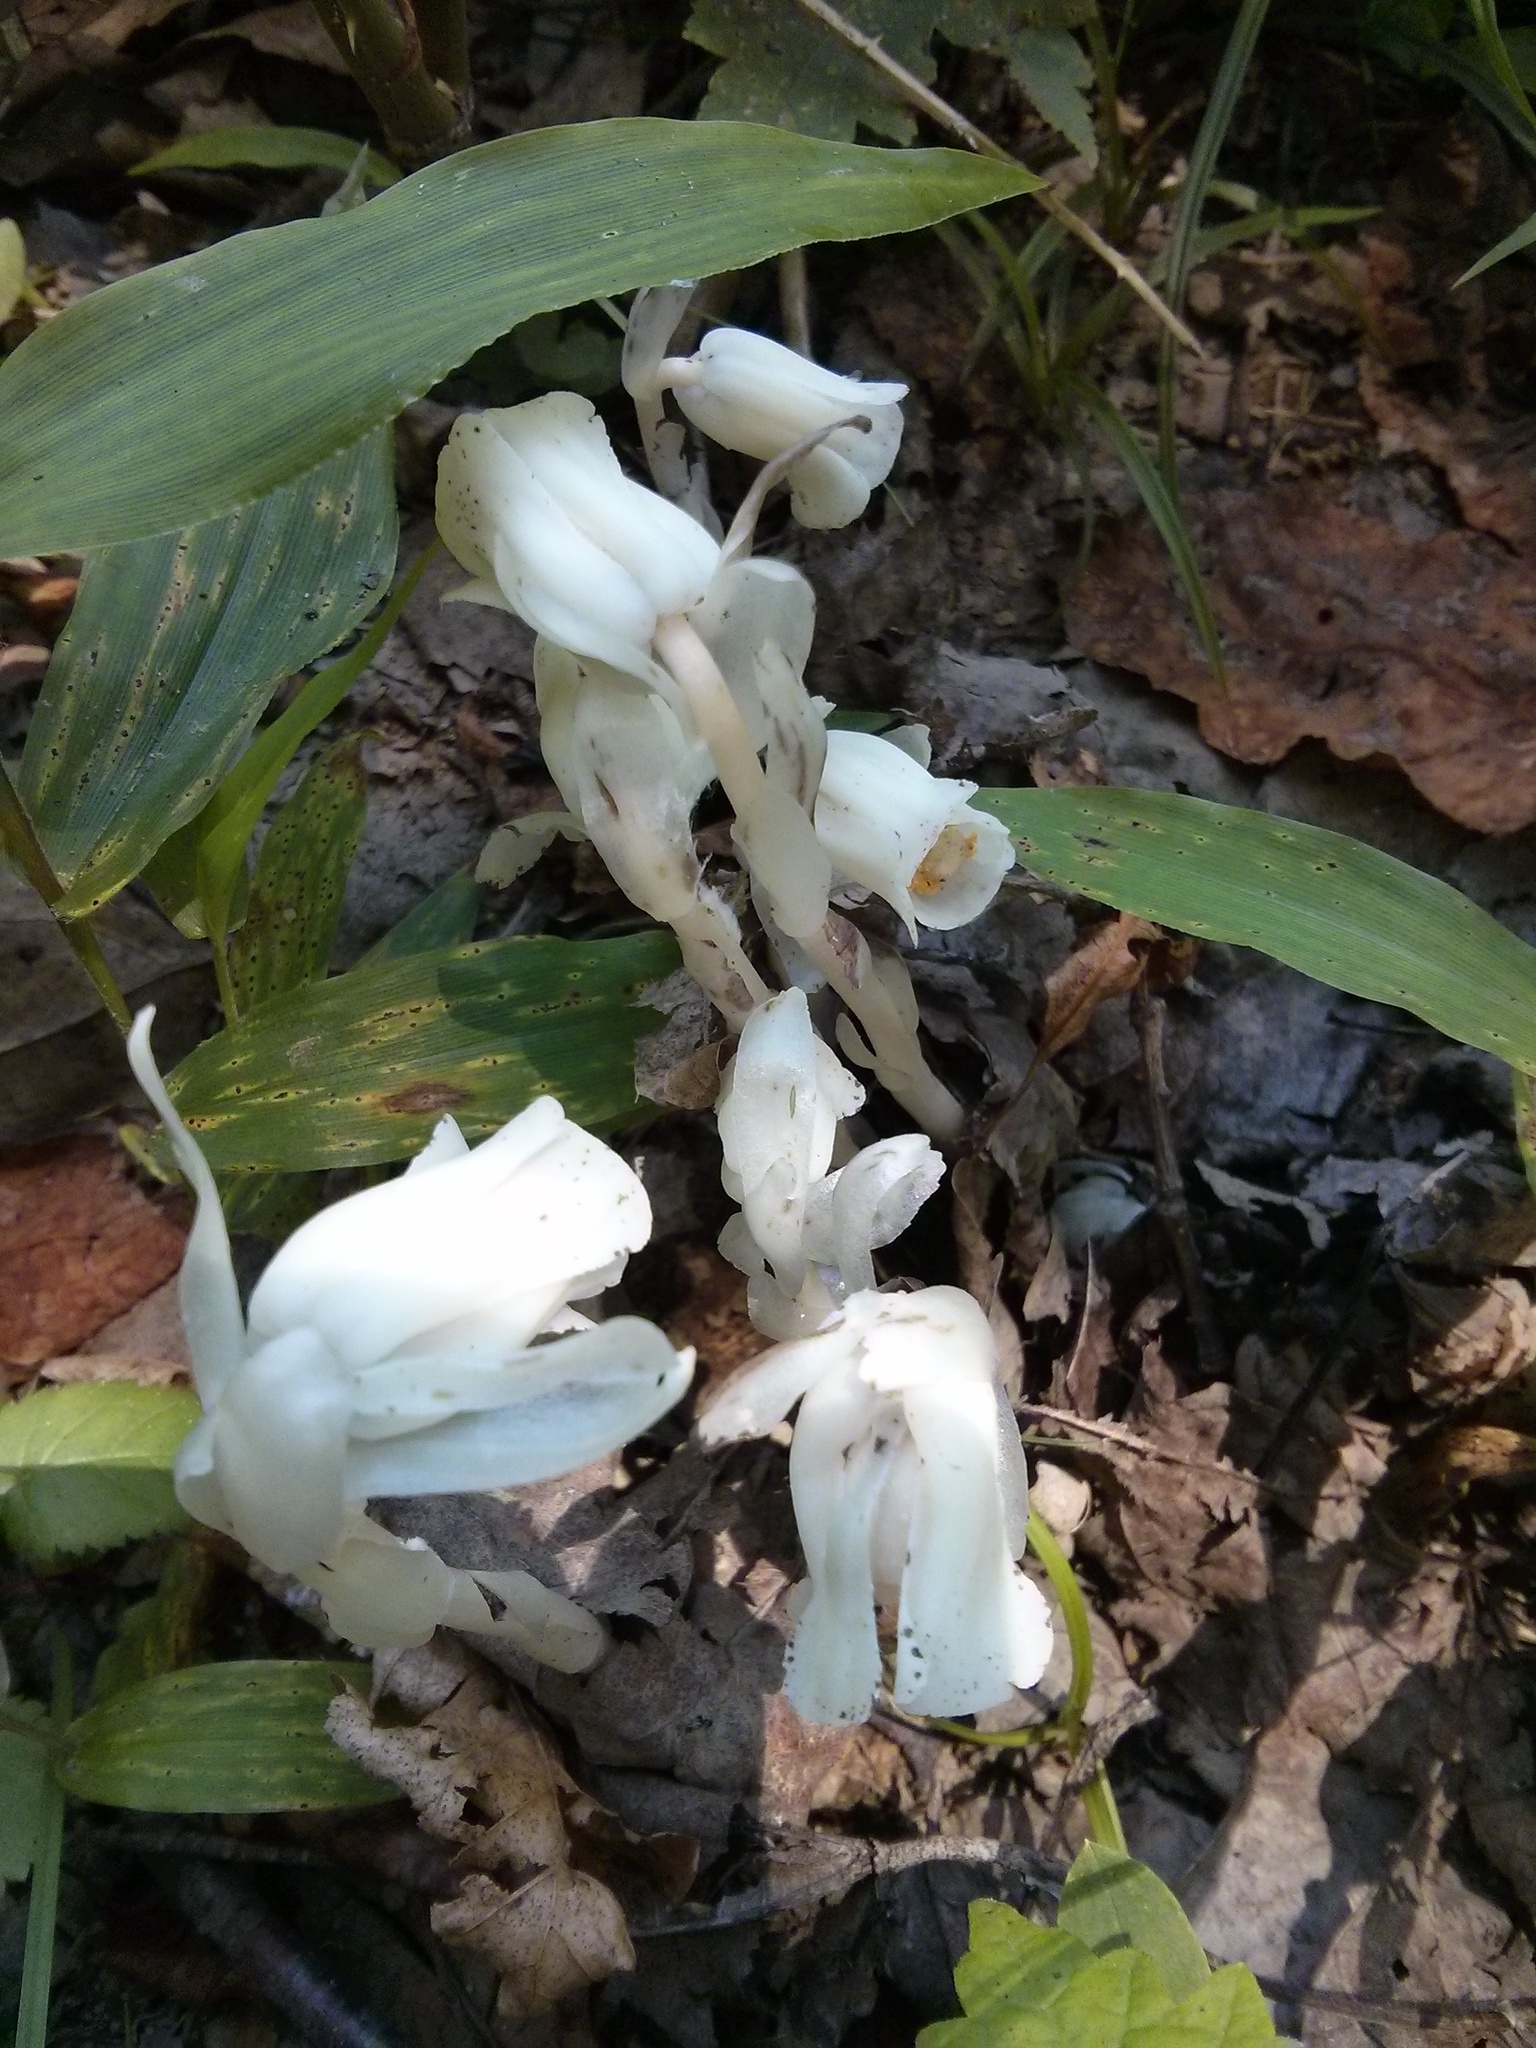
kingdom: Plantae
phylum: Tracheophyta
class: Magnoliopsida
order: Ericales
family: Ericaceae
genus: Monotropa
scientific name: Monotropa uniflora
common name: Convulsion root
